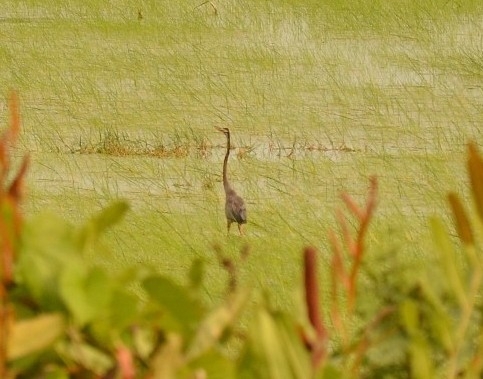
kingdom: Animalia
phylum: Chordata
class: Aves
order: Pelecaniformes
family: Ardeidae
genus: Ardea
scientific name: Ardea purpurea
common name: Purple heron
